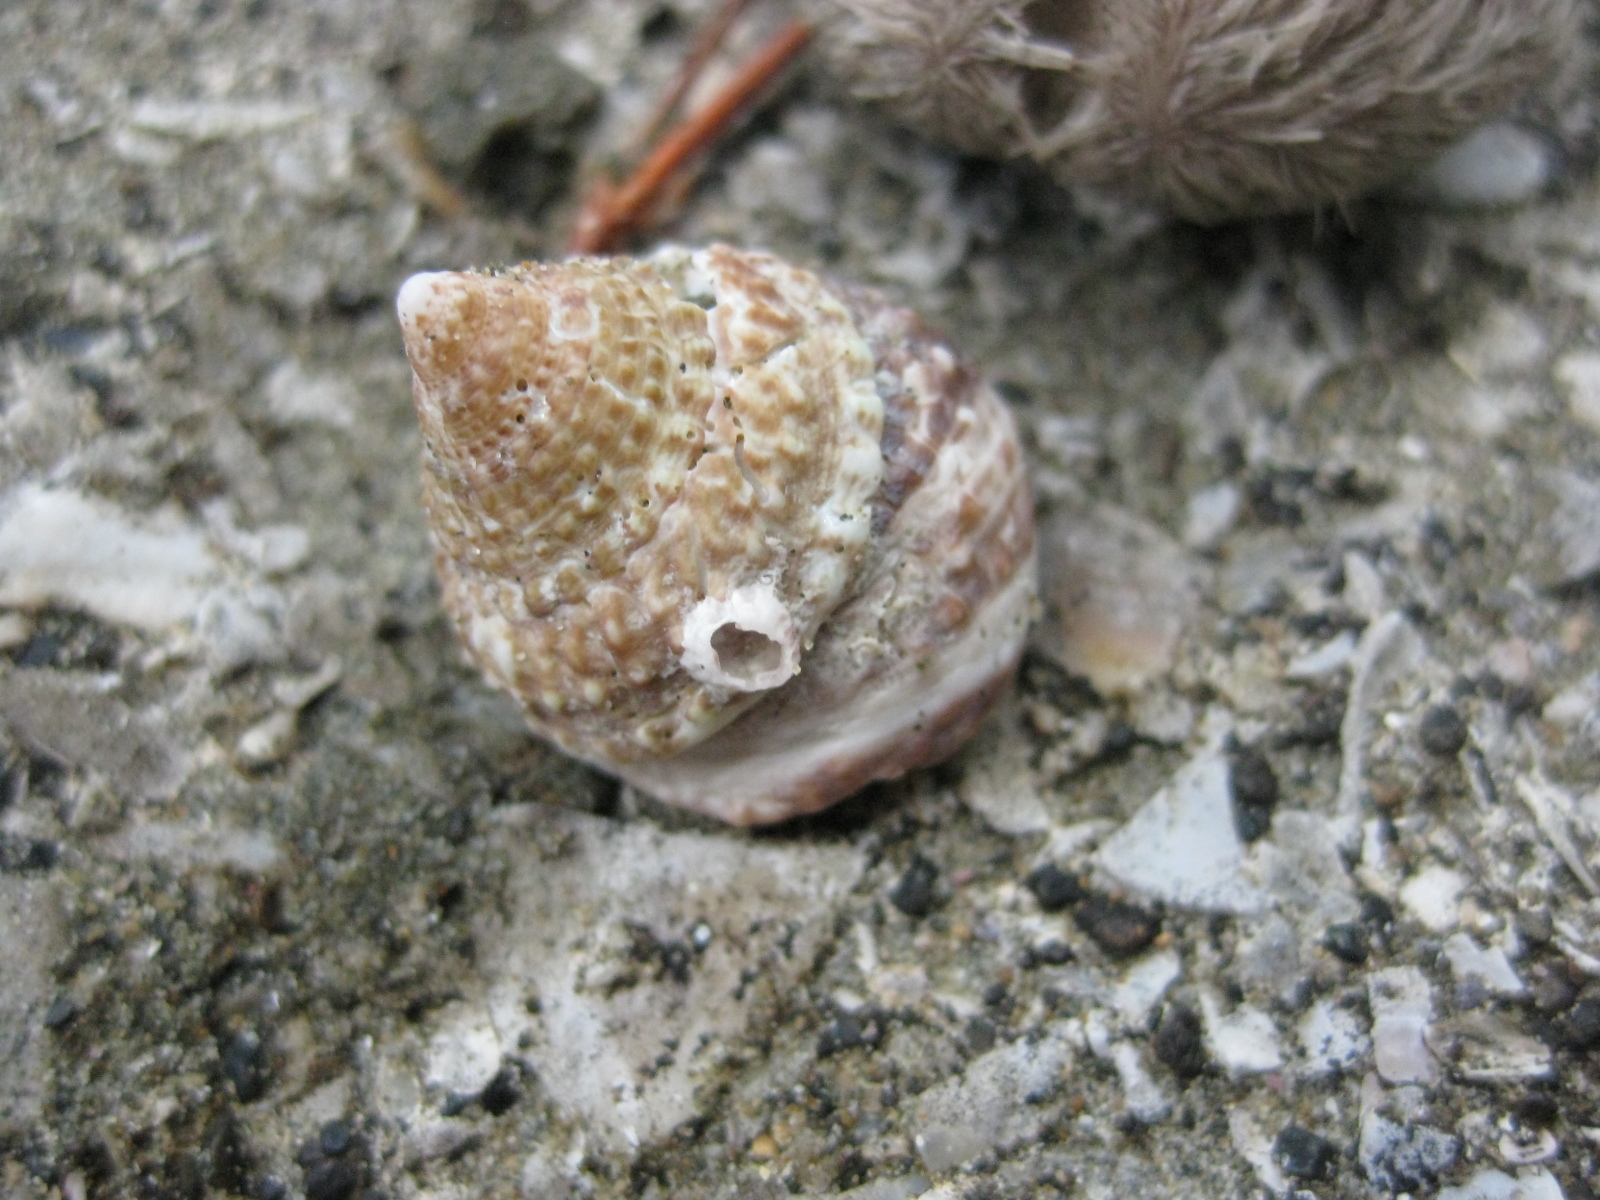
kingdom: Animalia
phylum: Mollusca
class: Gastropoda
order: Trochida
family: Trochidae
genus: Coelotrochus
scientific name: Coelotrochus viridis
